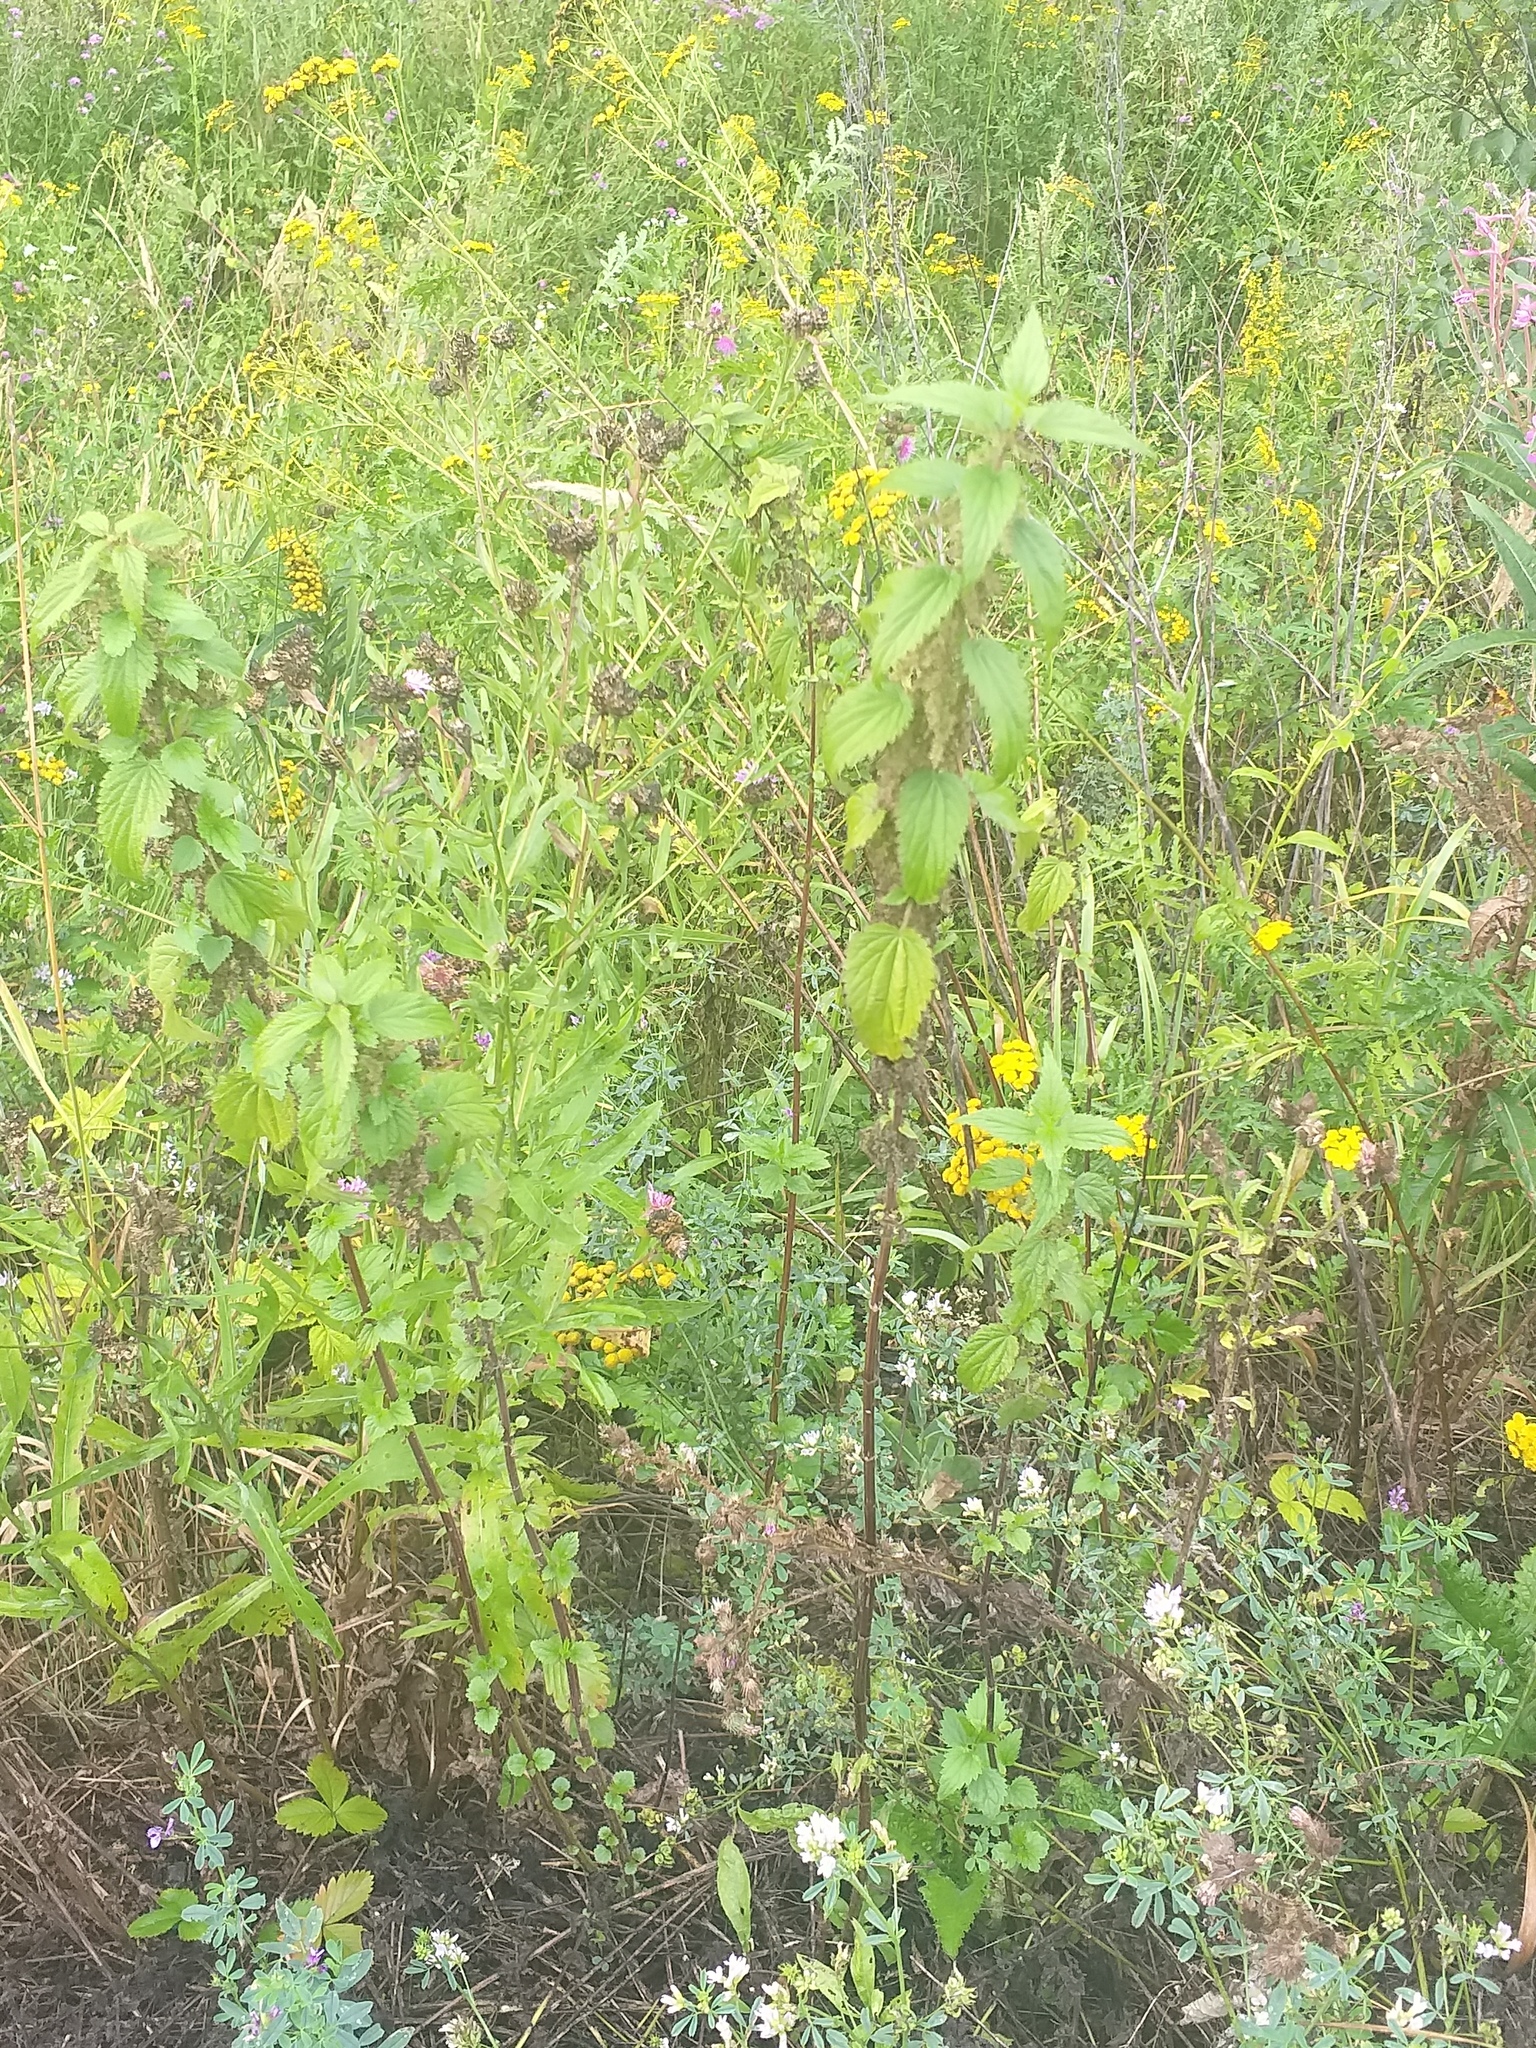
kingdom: Plantae
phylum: Tracheophyta
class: Magnoliopsida
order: Rosales
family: Urticaceae
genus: Urtica
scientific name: Urtica dioica
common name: Common nettle
